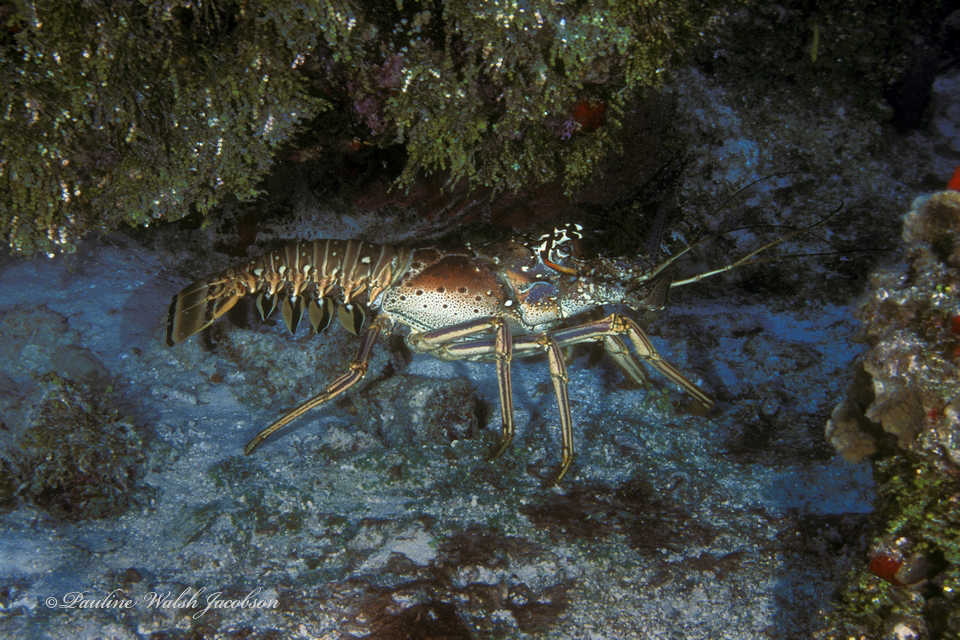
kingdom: Animalia
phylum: Arthropoda
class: Malacostraca
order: Decapoda
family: Palinuridae
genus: Panulirus
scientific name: Panulirus argus
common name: Caribbean spiny lobster
